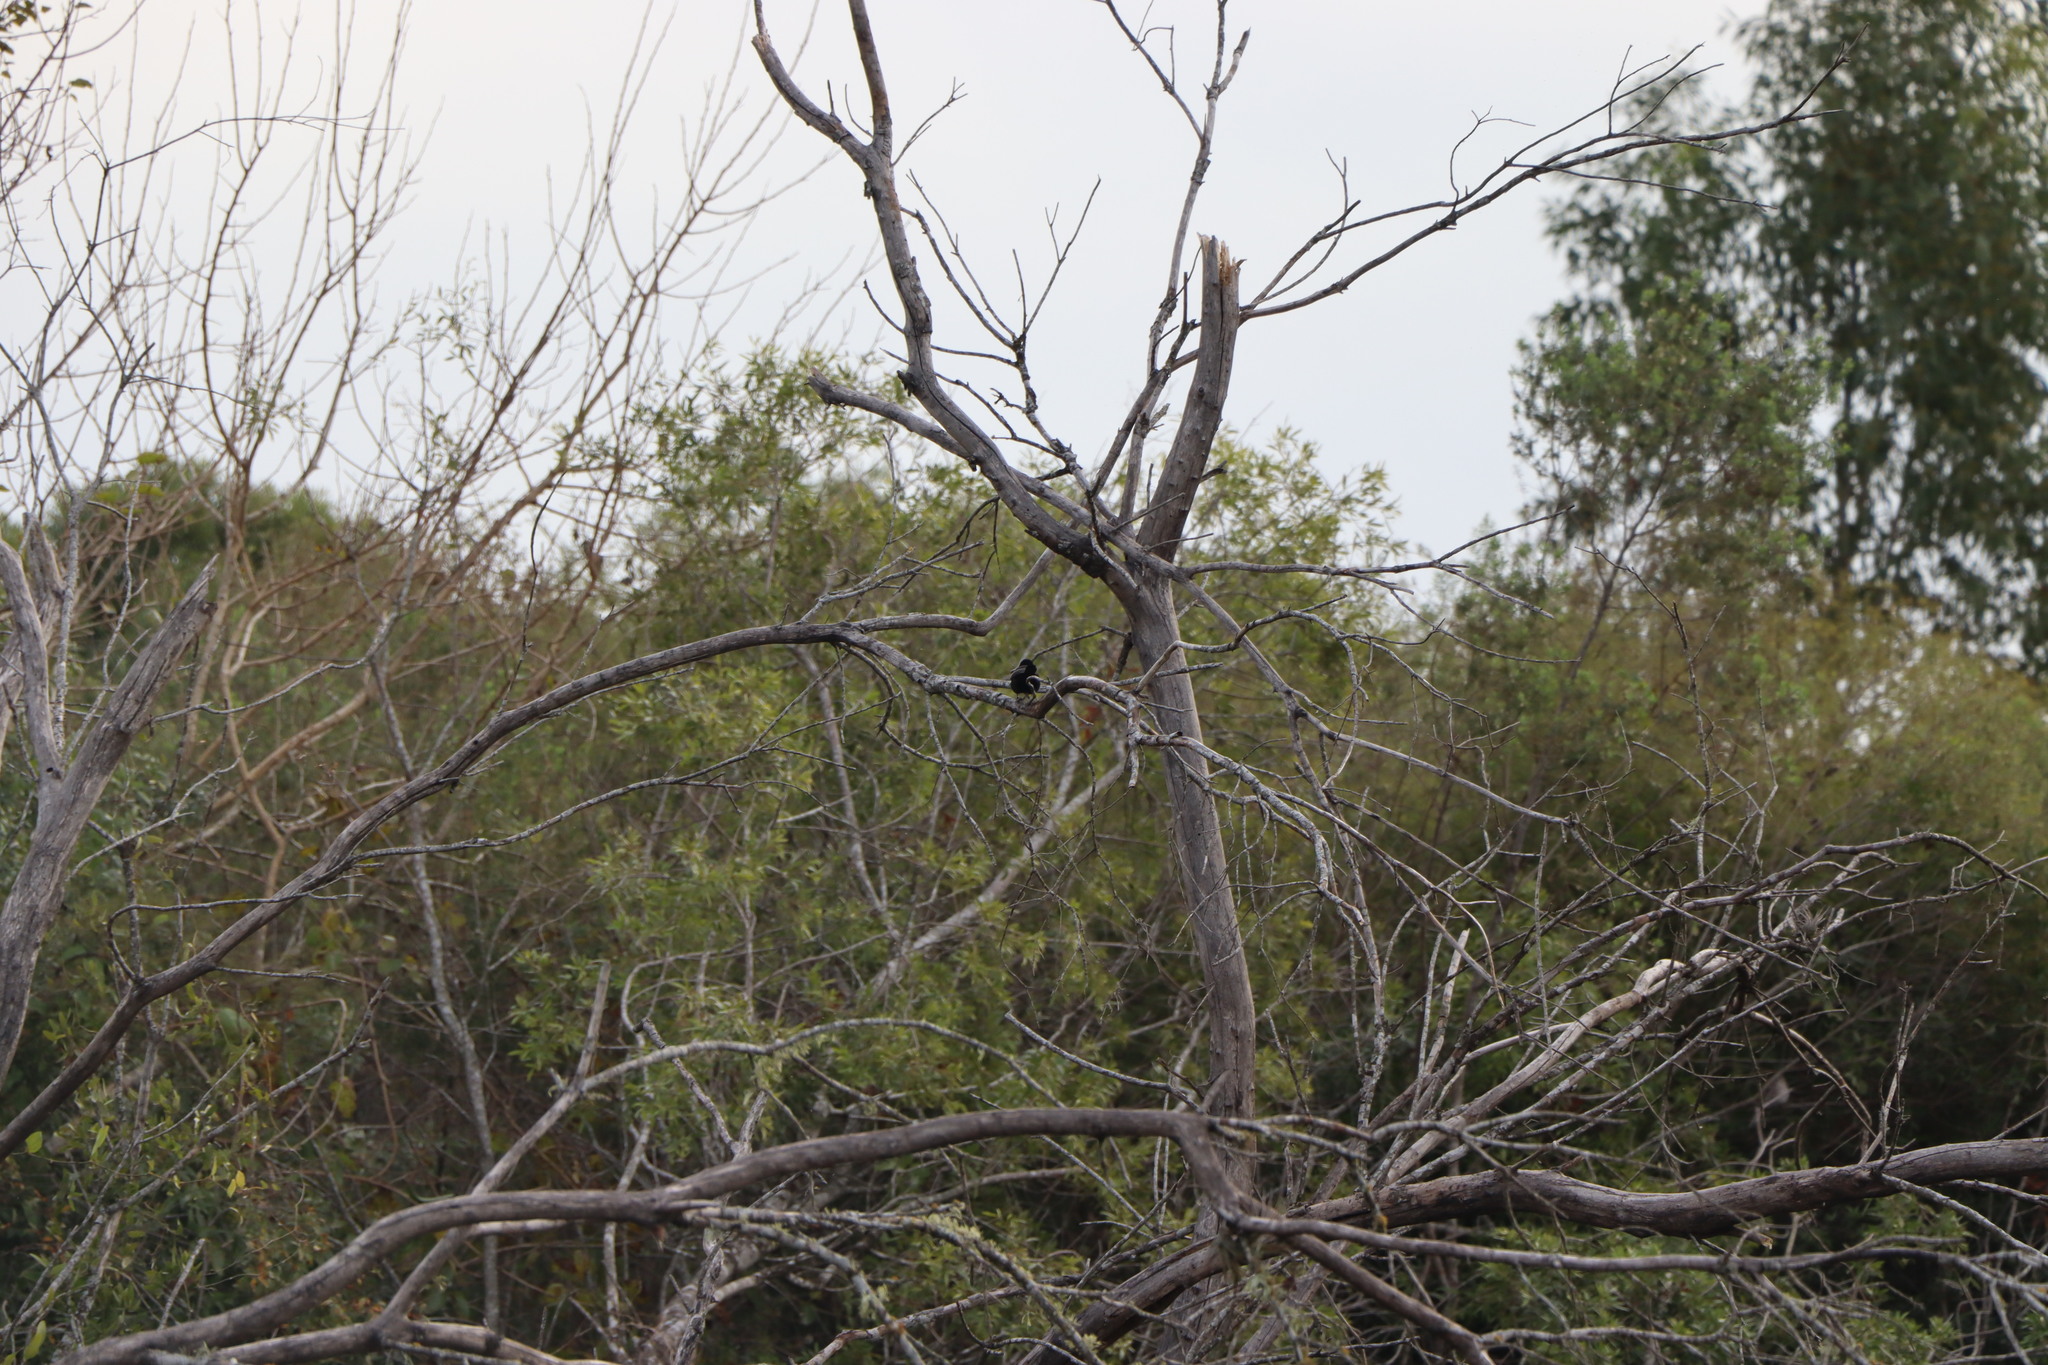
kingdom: Animalia
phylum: Chordata
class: Aves
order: Passeriformes
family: Icteridae
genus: Icterus
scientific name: Icterus cayanensis
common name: Epaulet oriole
